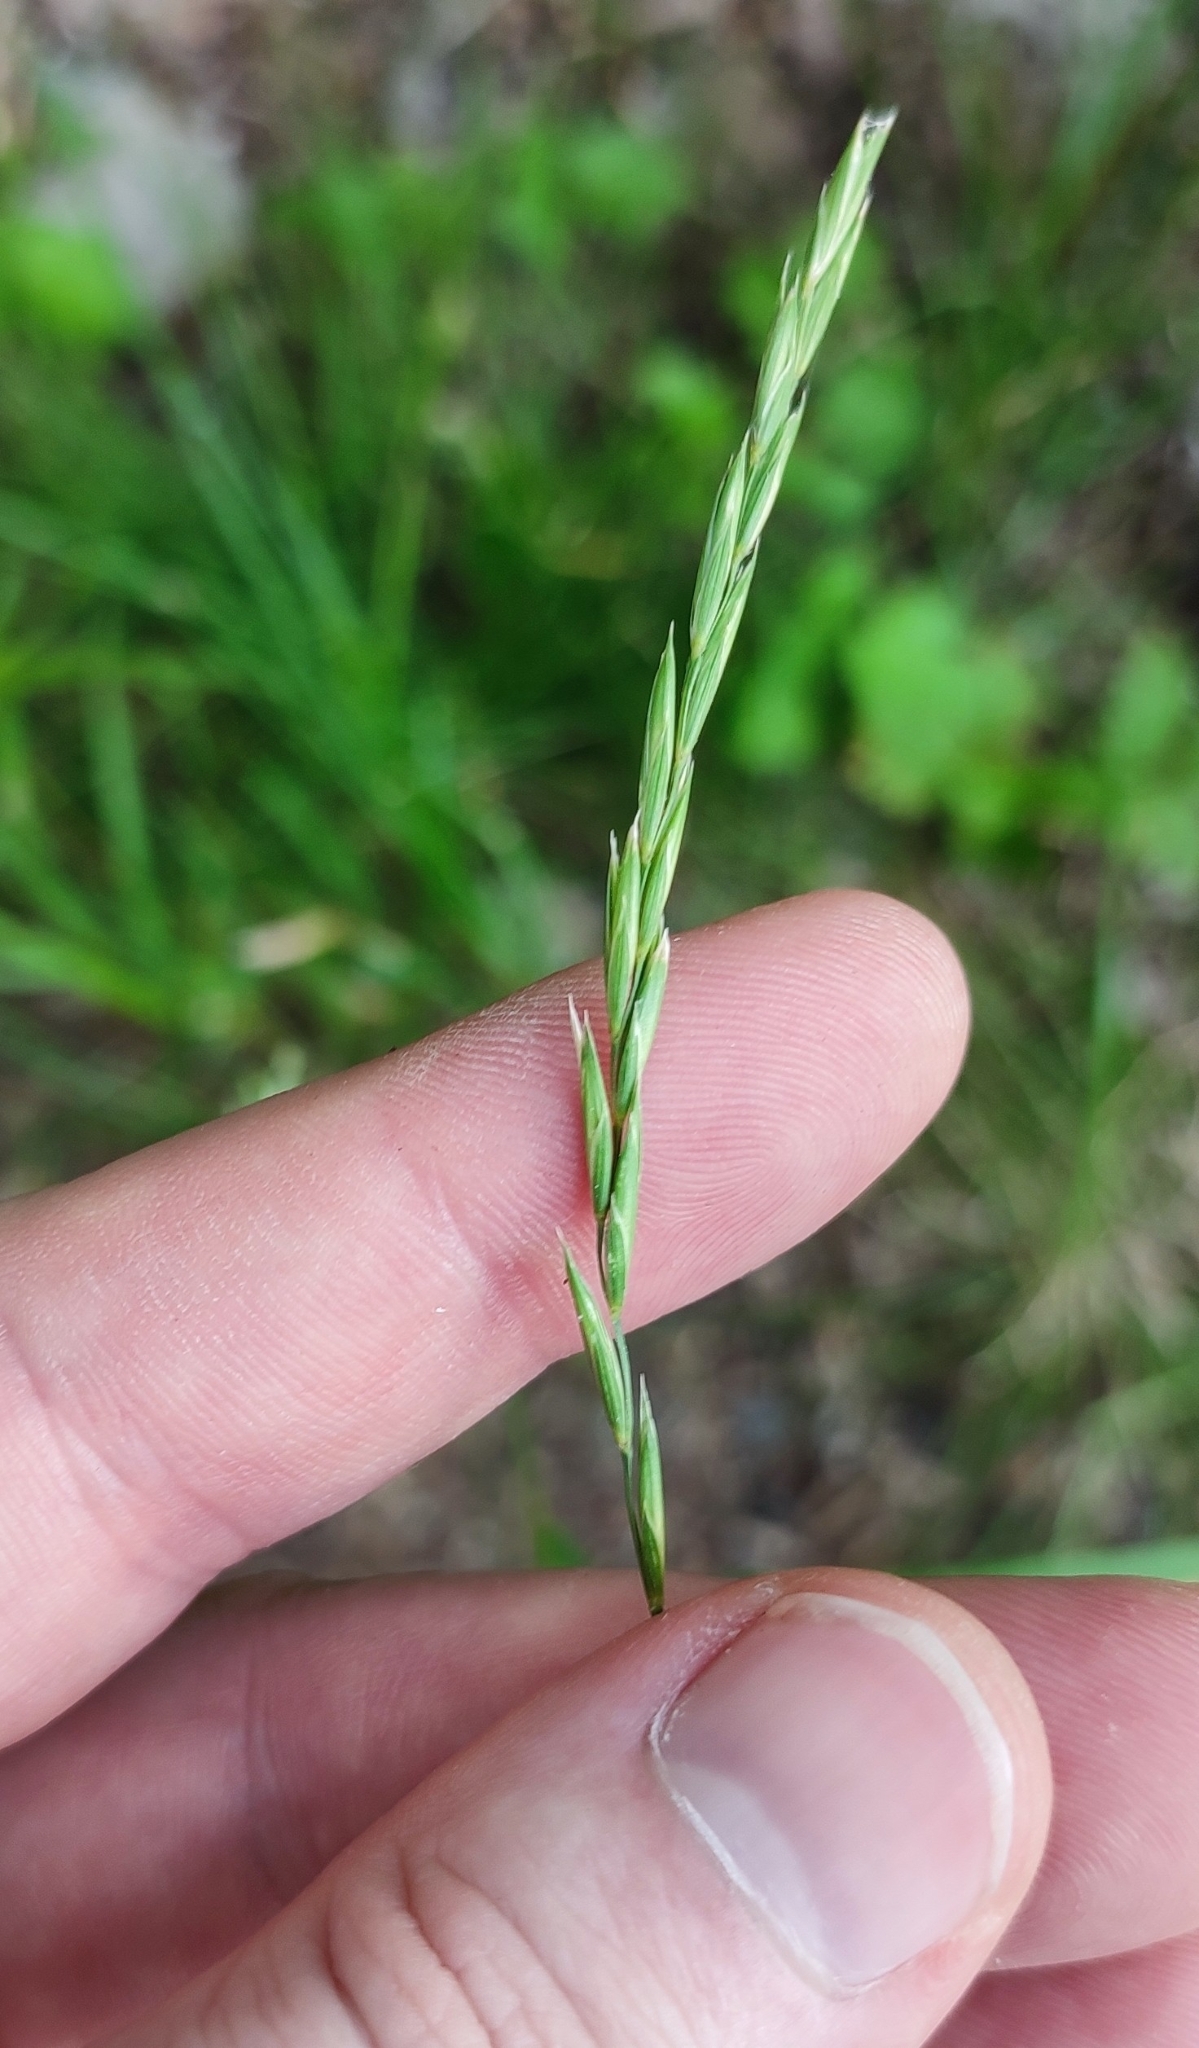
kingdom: Plantae
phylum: Tracheophyta
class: Liliopsida
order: Poales
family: Poaceae
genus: Elymus
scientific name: Elymus repens
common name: Quackgrass
